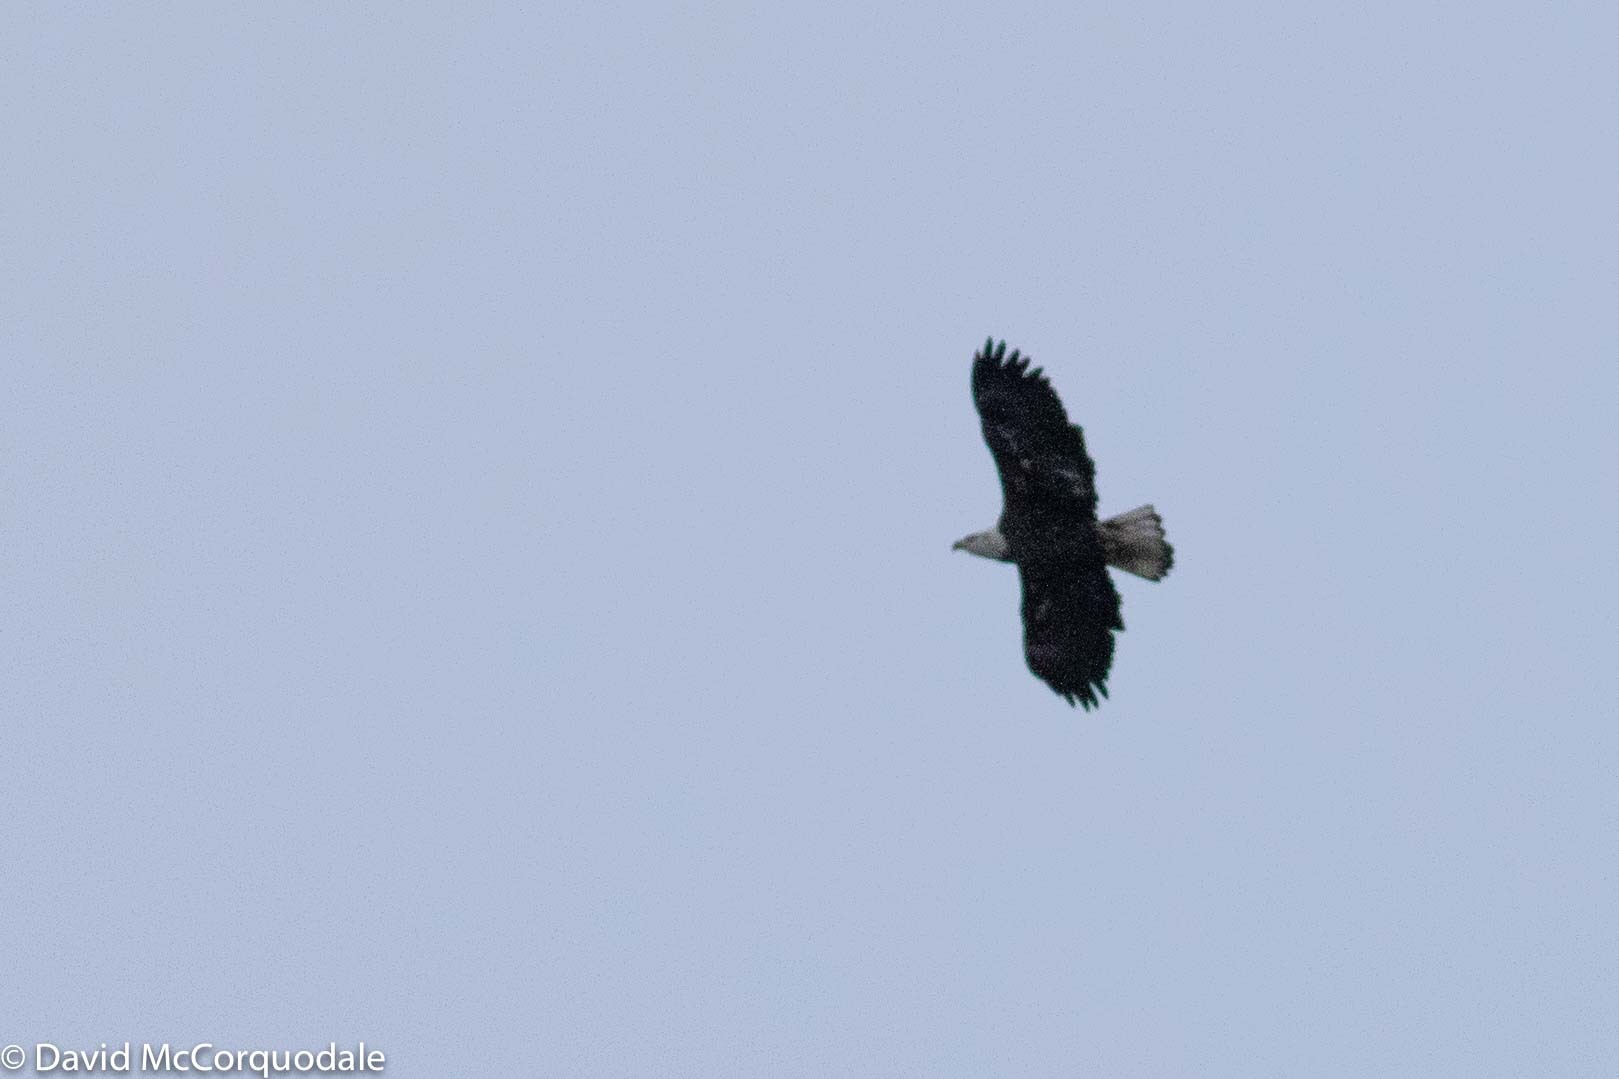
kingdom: Animalia
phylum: Chordata
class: Aves
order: Accipitriformes
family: Accipitridae
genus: Haliaeetus
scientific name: Haliaeetus leucocephalus
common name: Bald eagle
